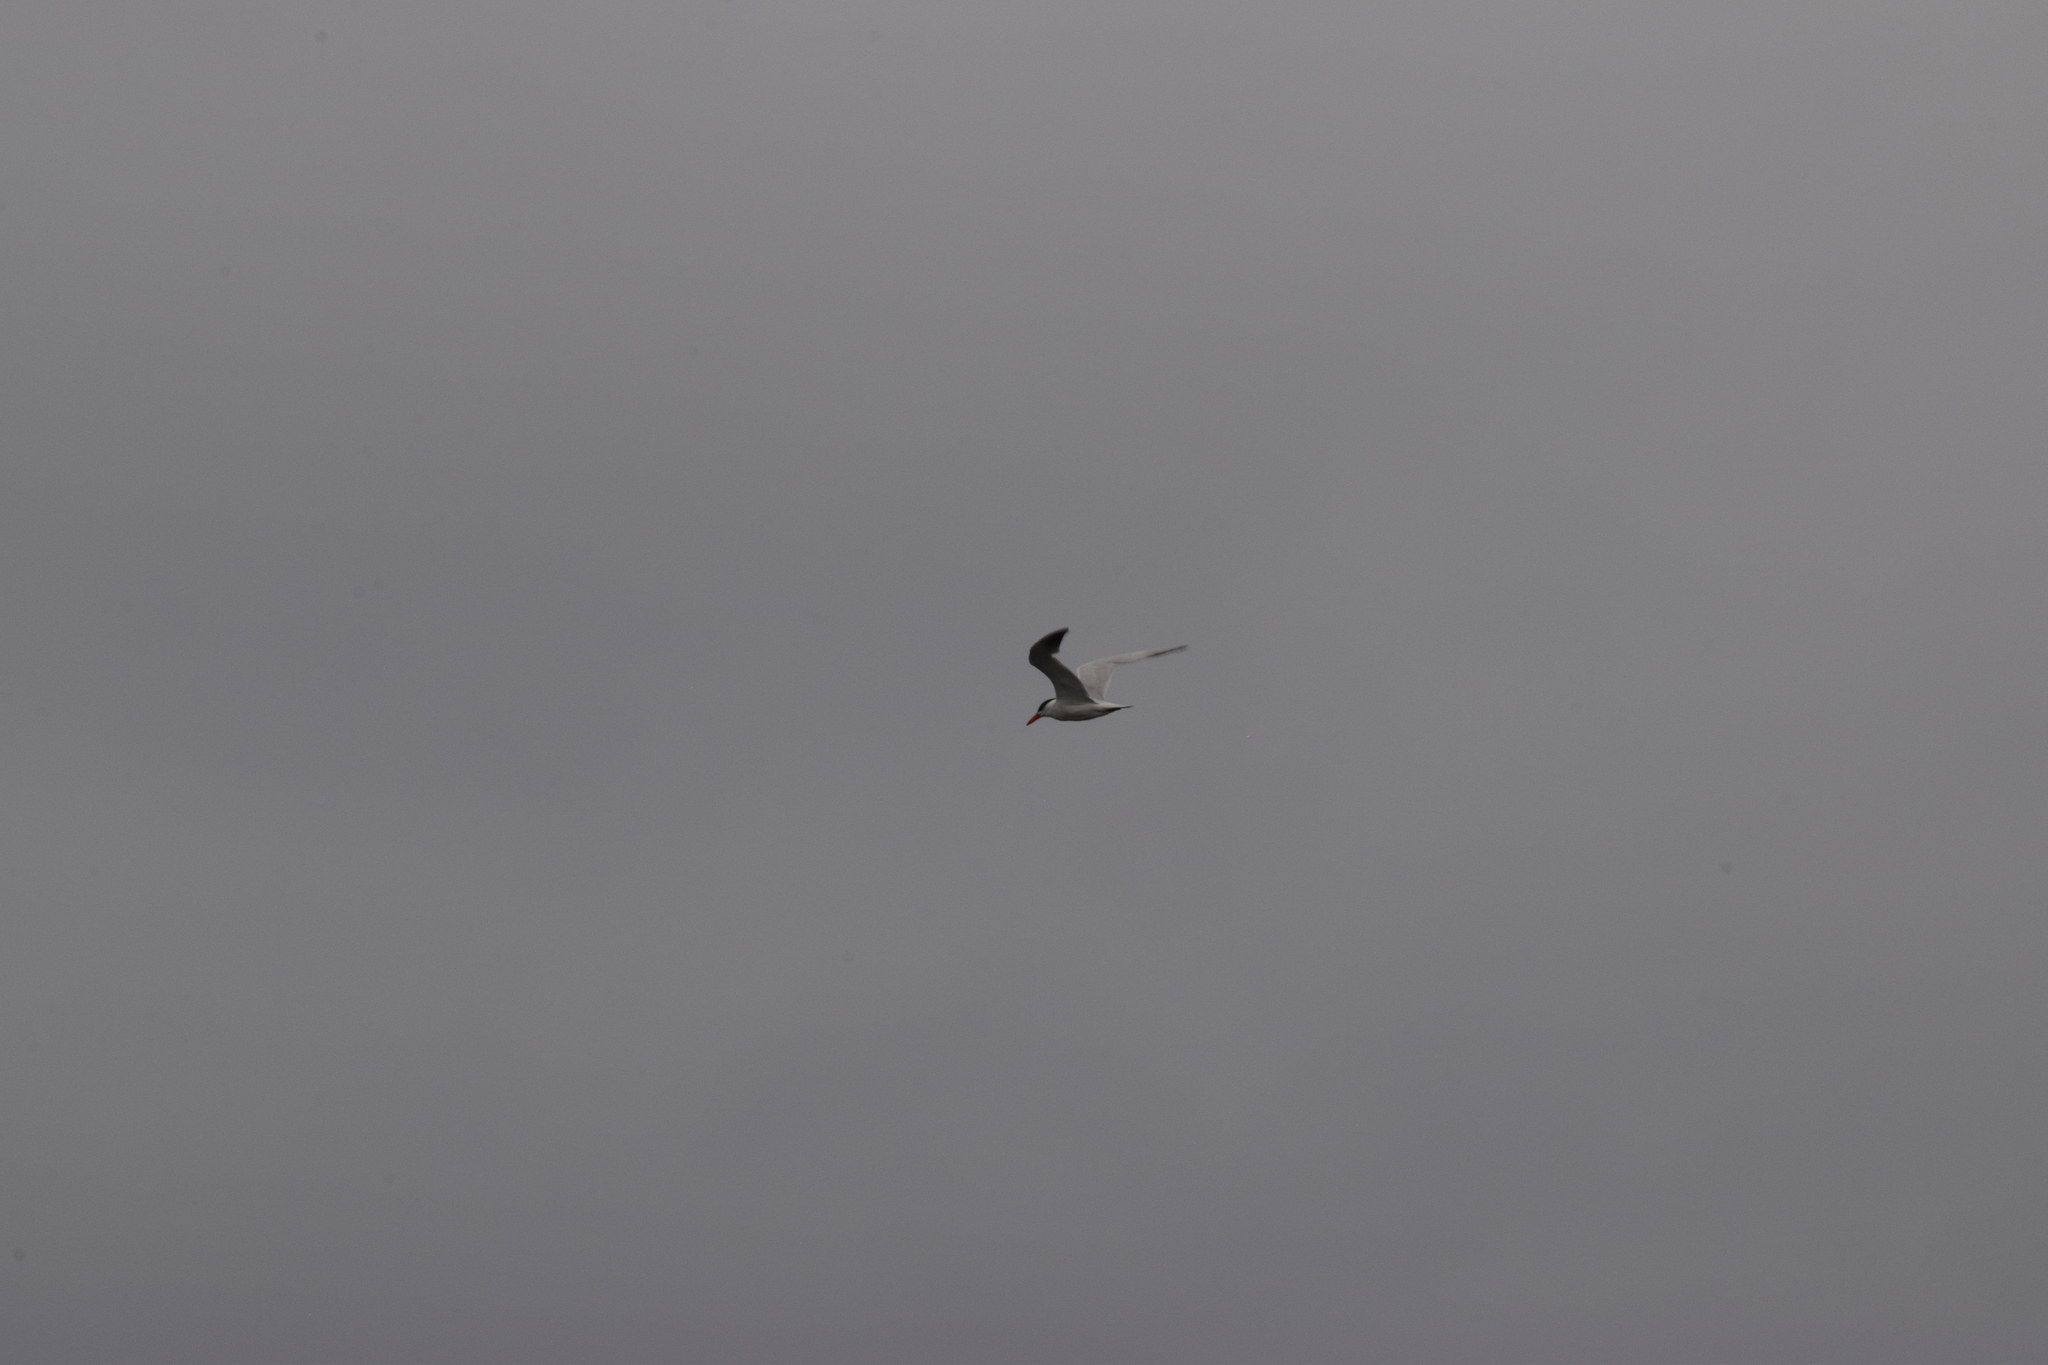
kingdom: Animalia
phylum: Chordata
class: Aves
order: Charadriiformes
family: Laridae
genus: Hydroprogne
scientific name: Hydroprogne caspia
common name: Caspian tern
